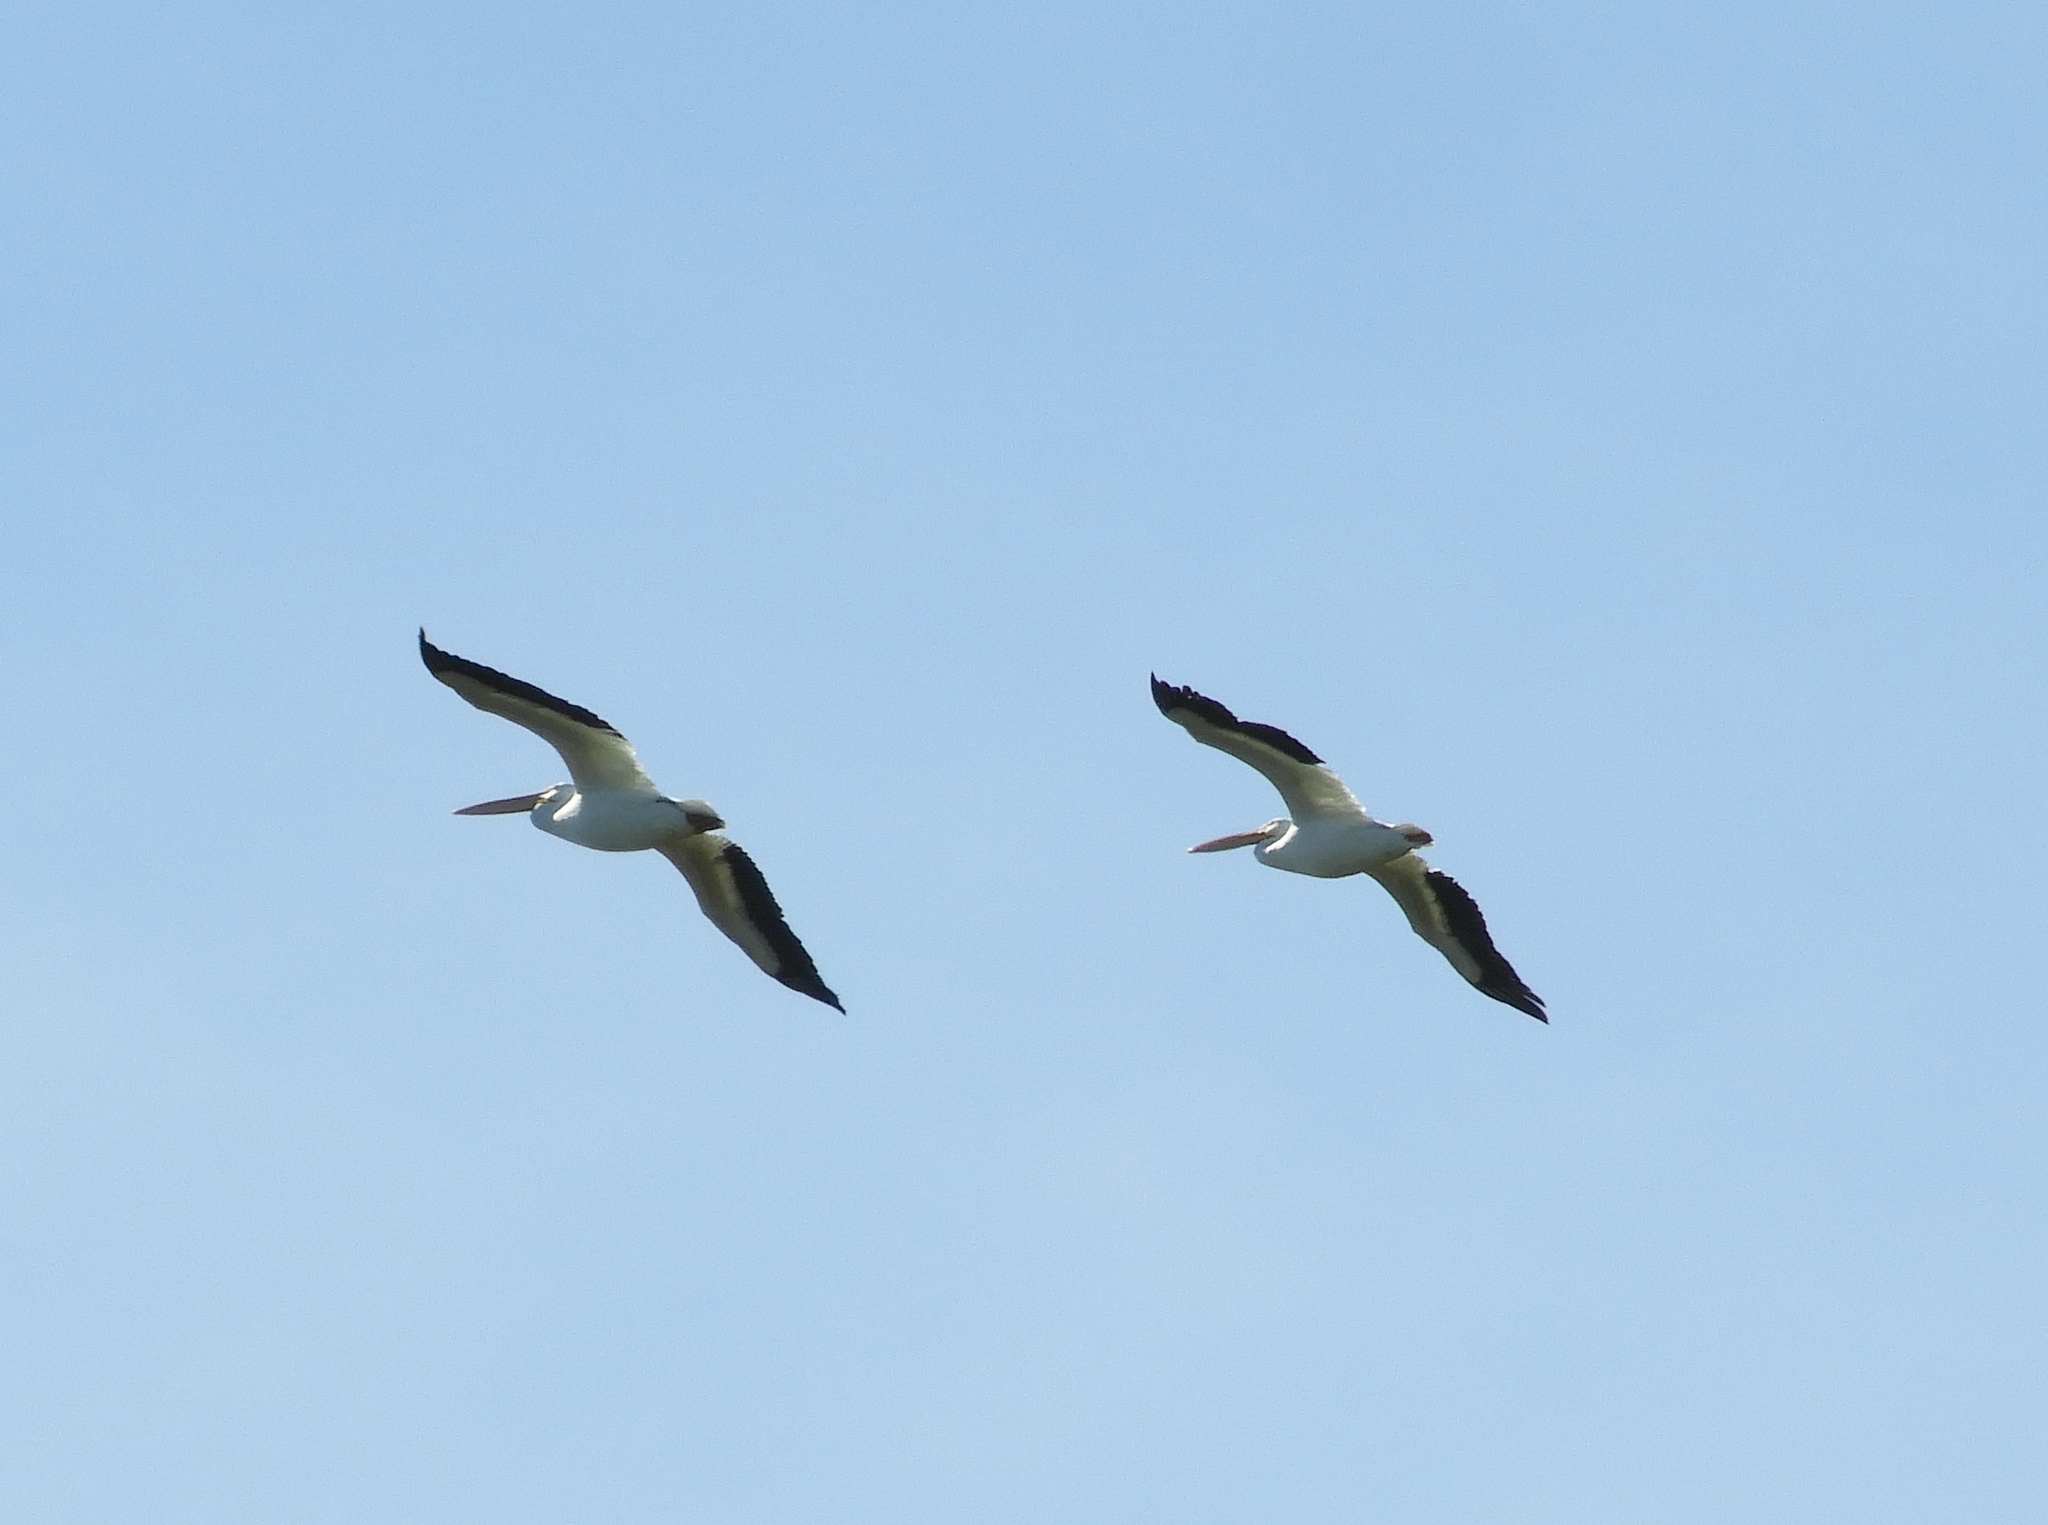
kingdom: Animalia
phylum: Chordata
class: Aves
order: Pelecaniformes
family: Pelecanidae
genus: Pelecanus
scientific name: Pelecanus erythrorhynchos
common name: American white pelican
